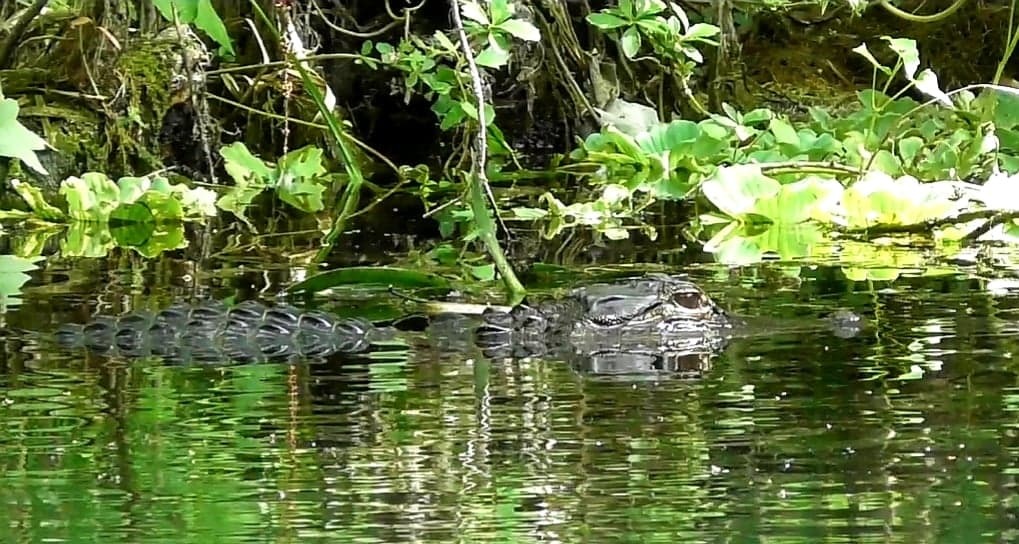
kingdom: Animalia
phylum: Chordata
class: Crocodylia
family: Alligatoridae
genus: Alligator
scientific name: Alligator mississippiensis
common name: American alligator
